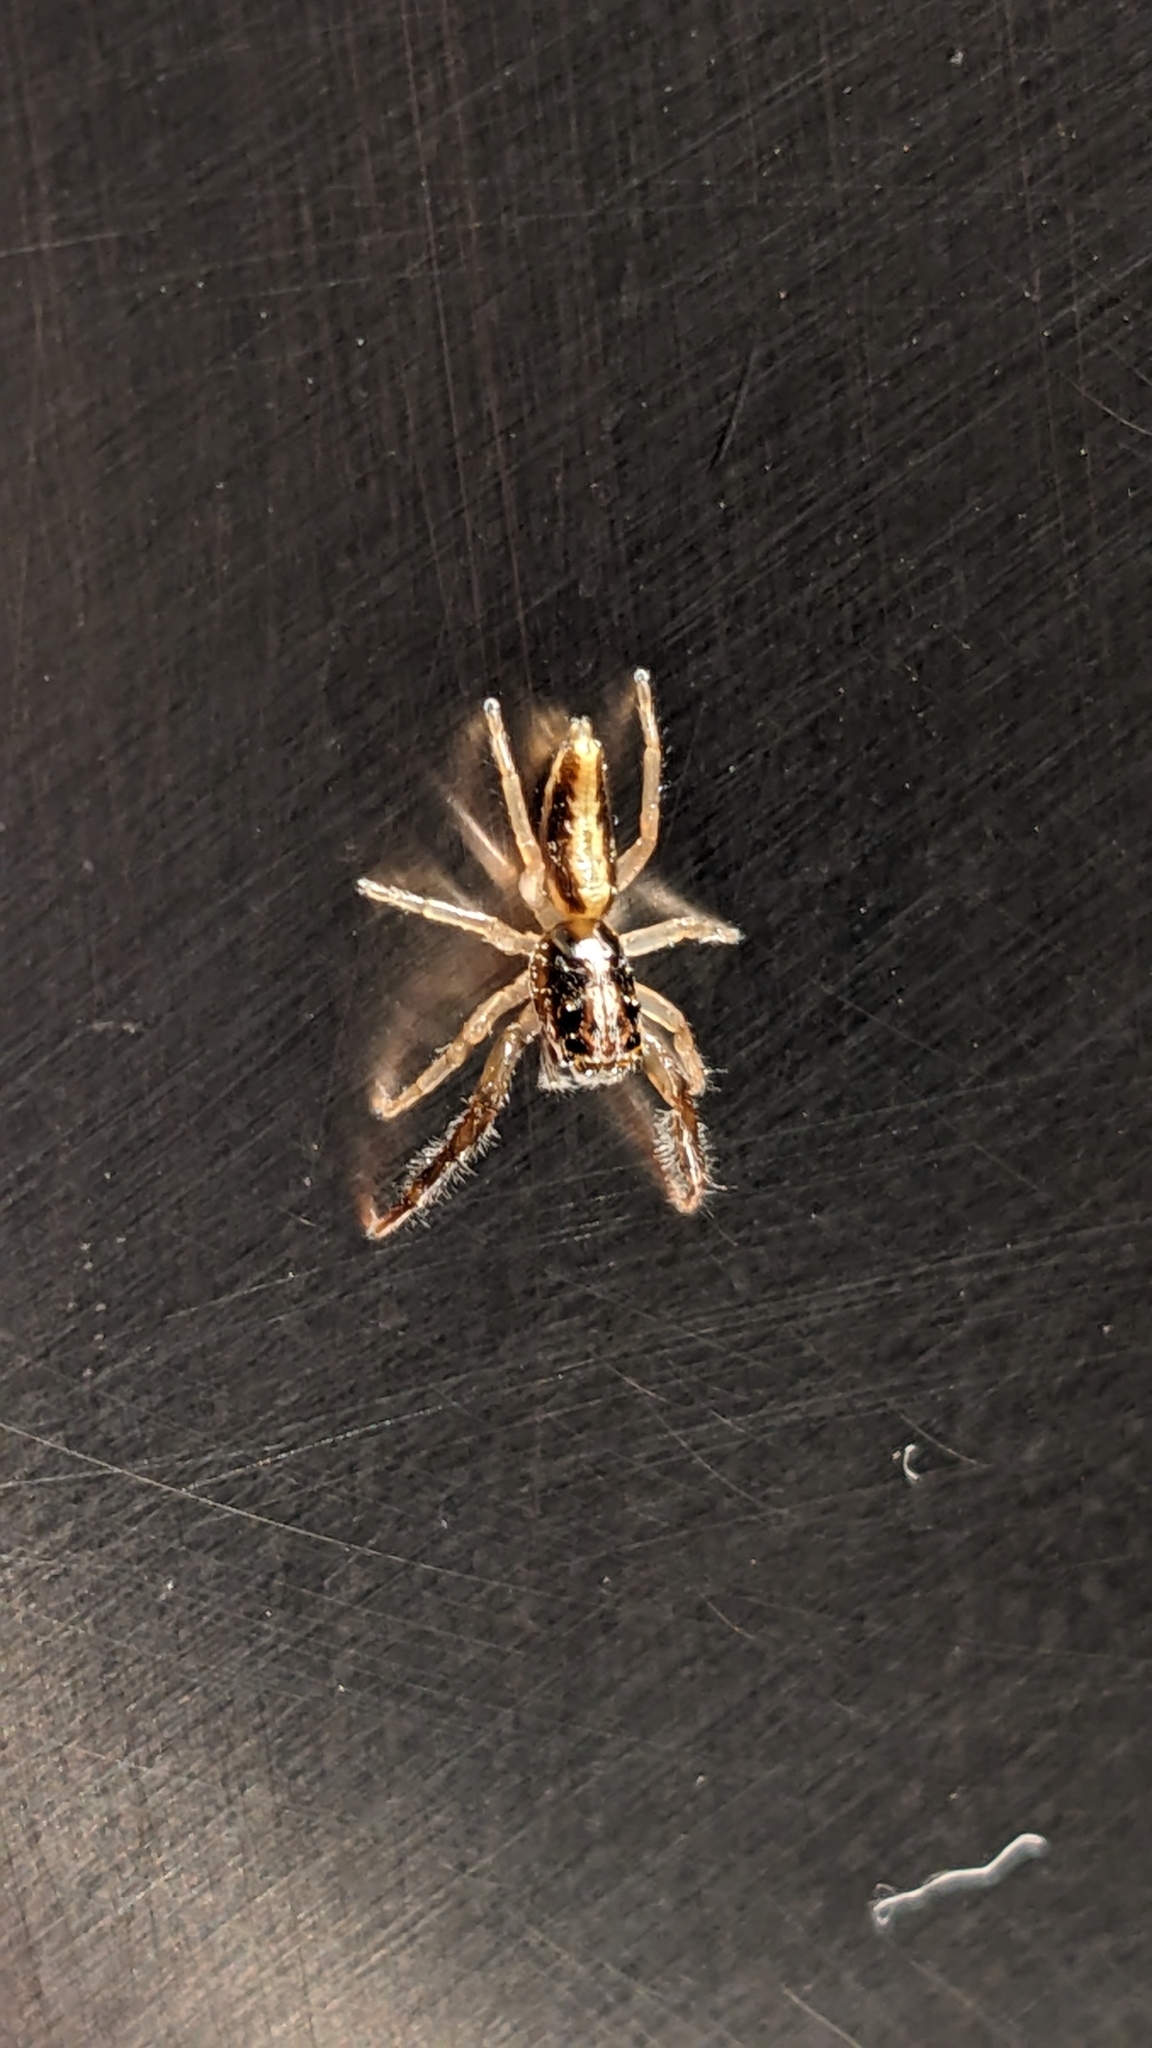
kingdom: Animalia
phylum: Arthropoda
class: Arachnida
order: Araneae
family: Salticidae
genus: Trite
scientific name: Trite planiceps
